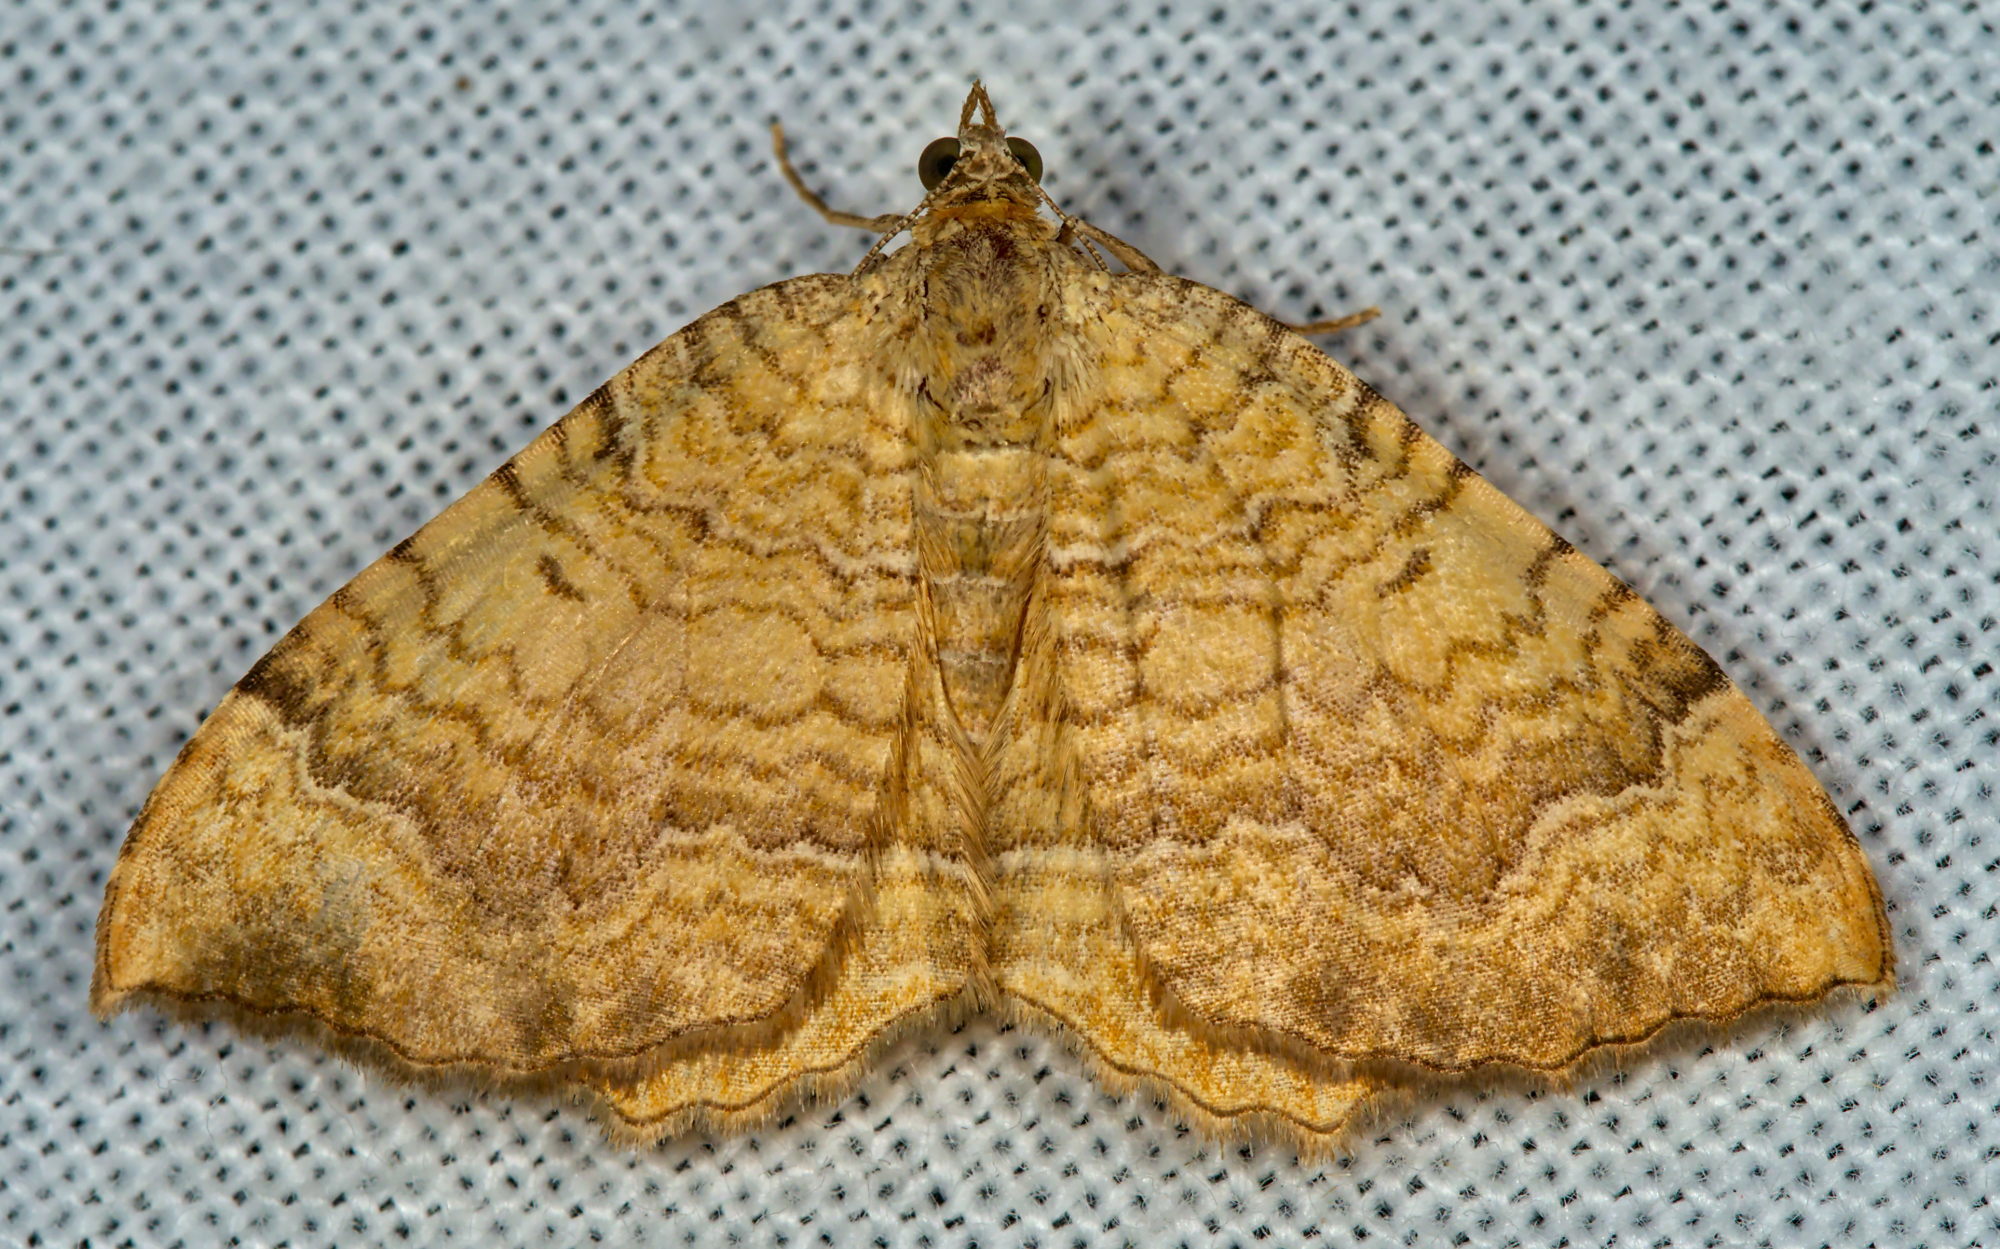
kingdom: Animalia
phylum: Arthropoda
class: Insecta
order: Lepidoptera
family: Geometridae
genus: Camptogramma
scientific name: Camptogramma bilineata
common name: Yellow shell
